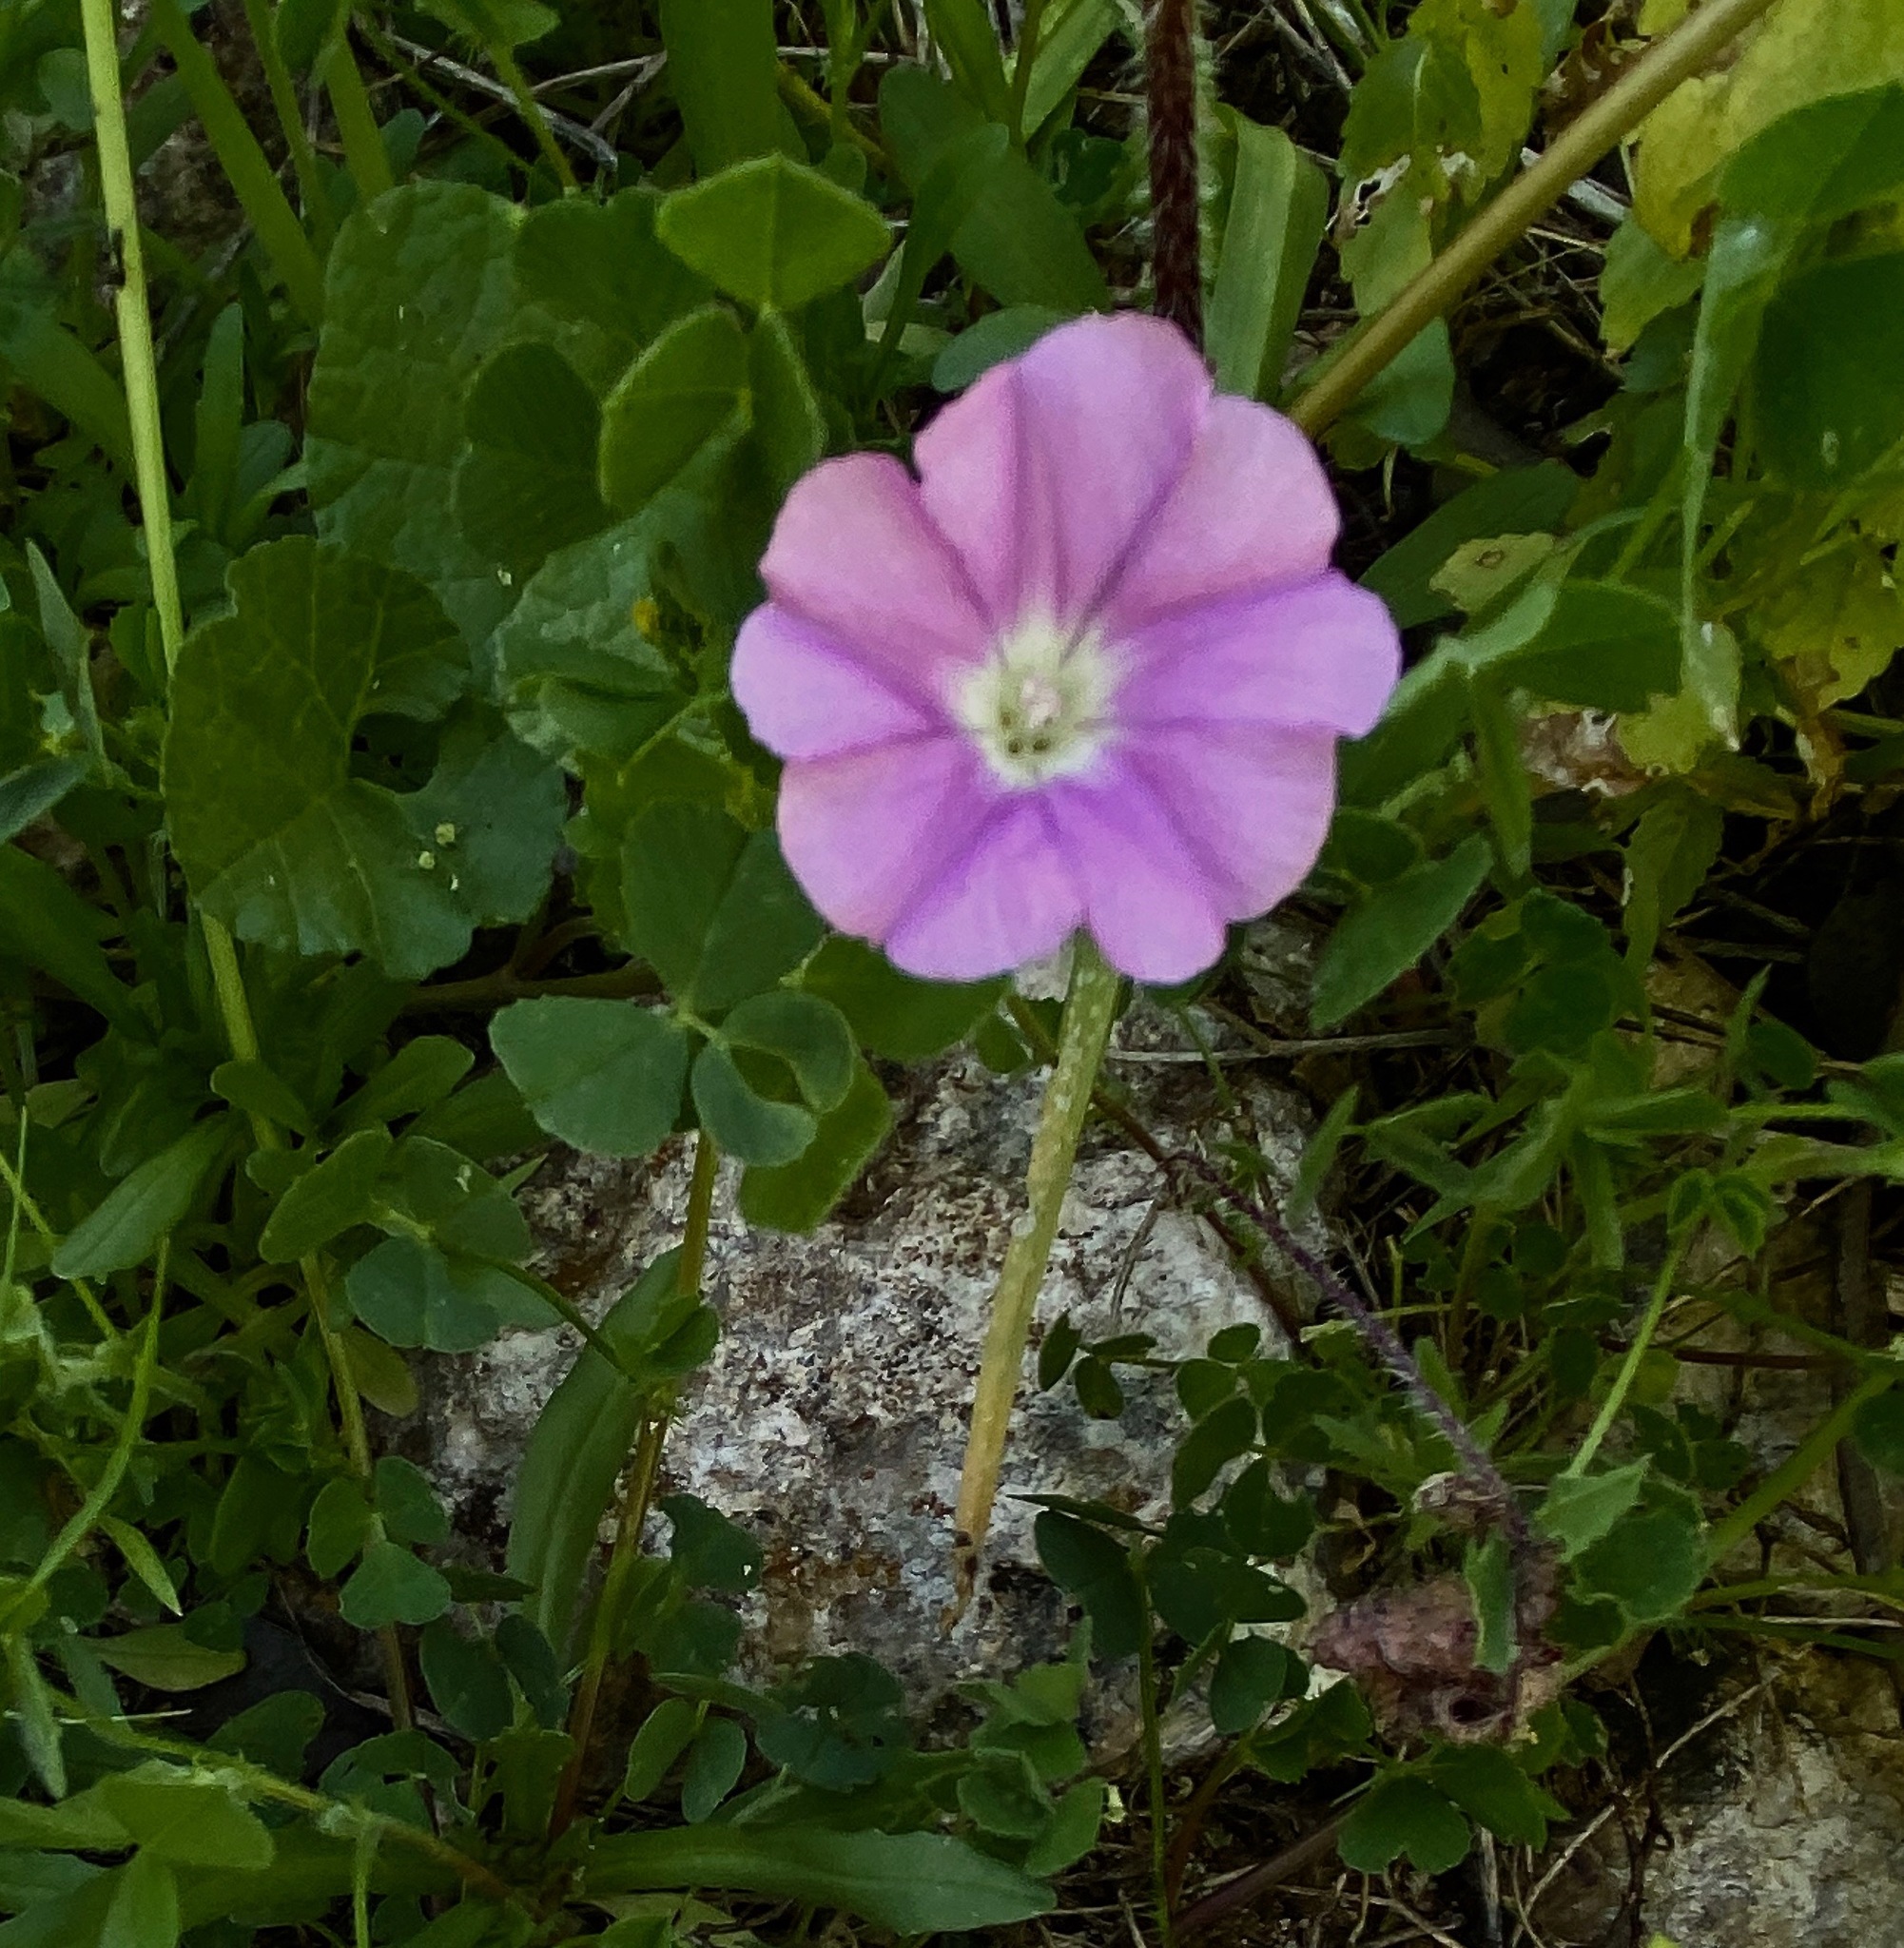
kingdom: Plantae
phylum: Tracheophyta
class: Magnoliopsida
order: Solanales
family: Convolvulaceae
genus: Convolvulus
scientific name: Convolvulus coelesyriacus
